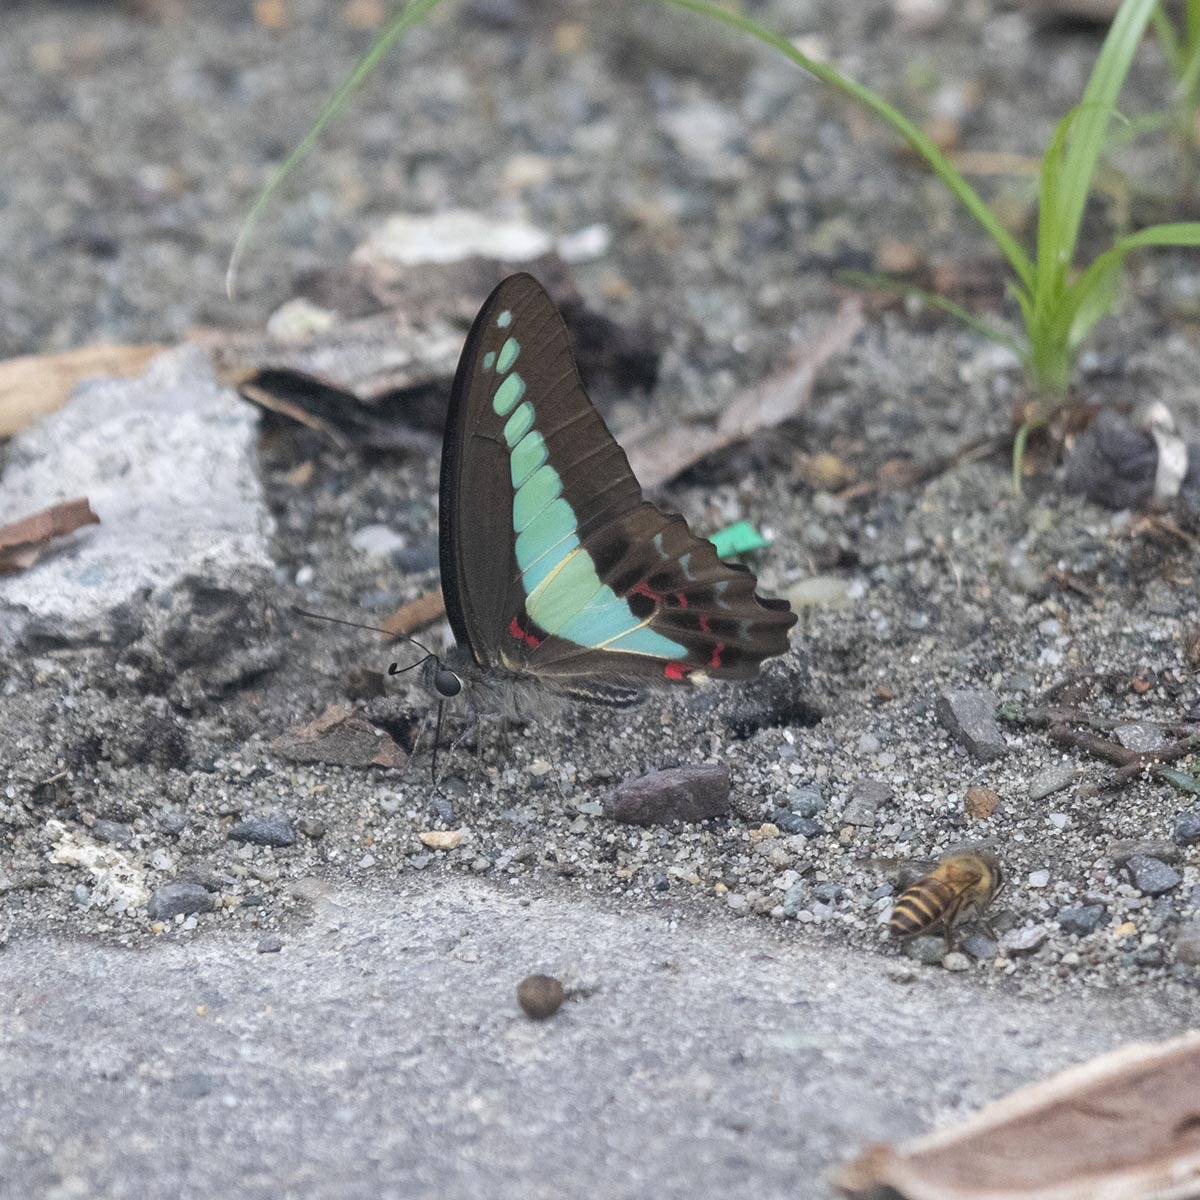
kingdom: Fungi
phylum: Ascomycota
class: Sordariomycetes
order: Microascales
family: Microascaceae
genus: Graphium
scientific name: Graphium sarpedon
